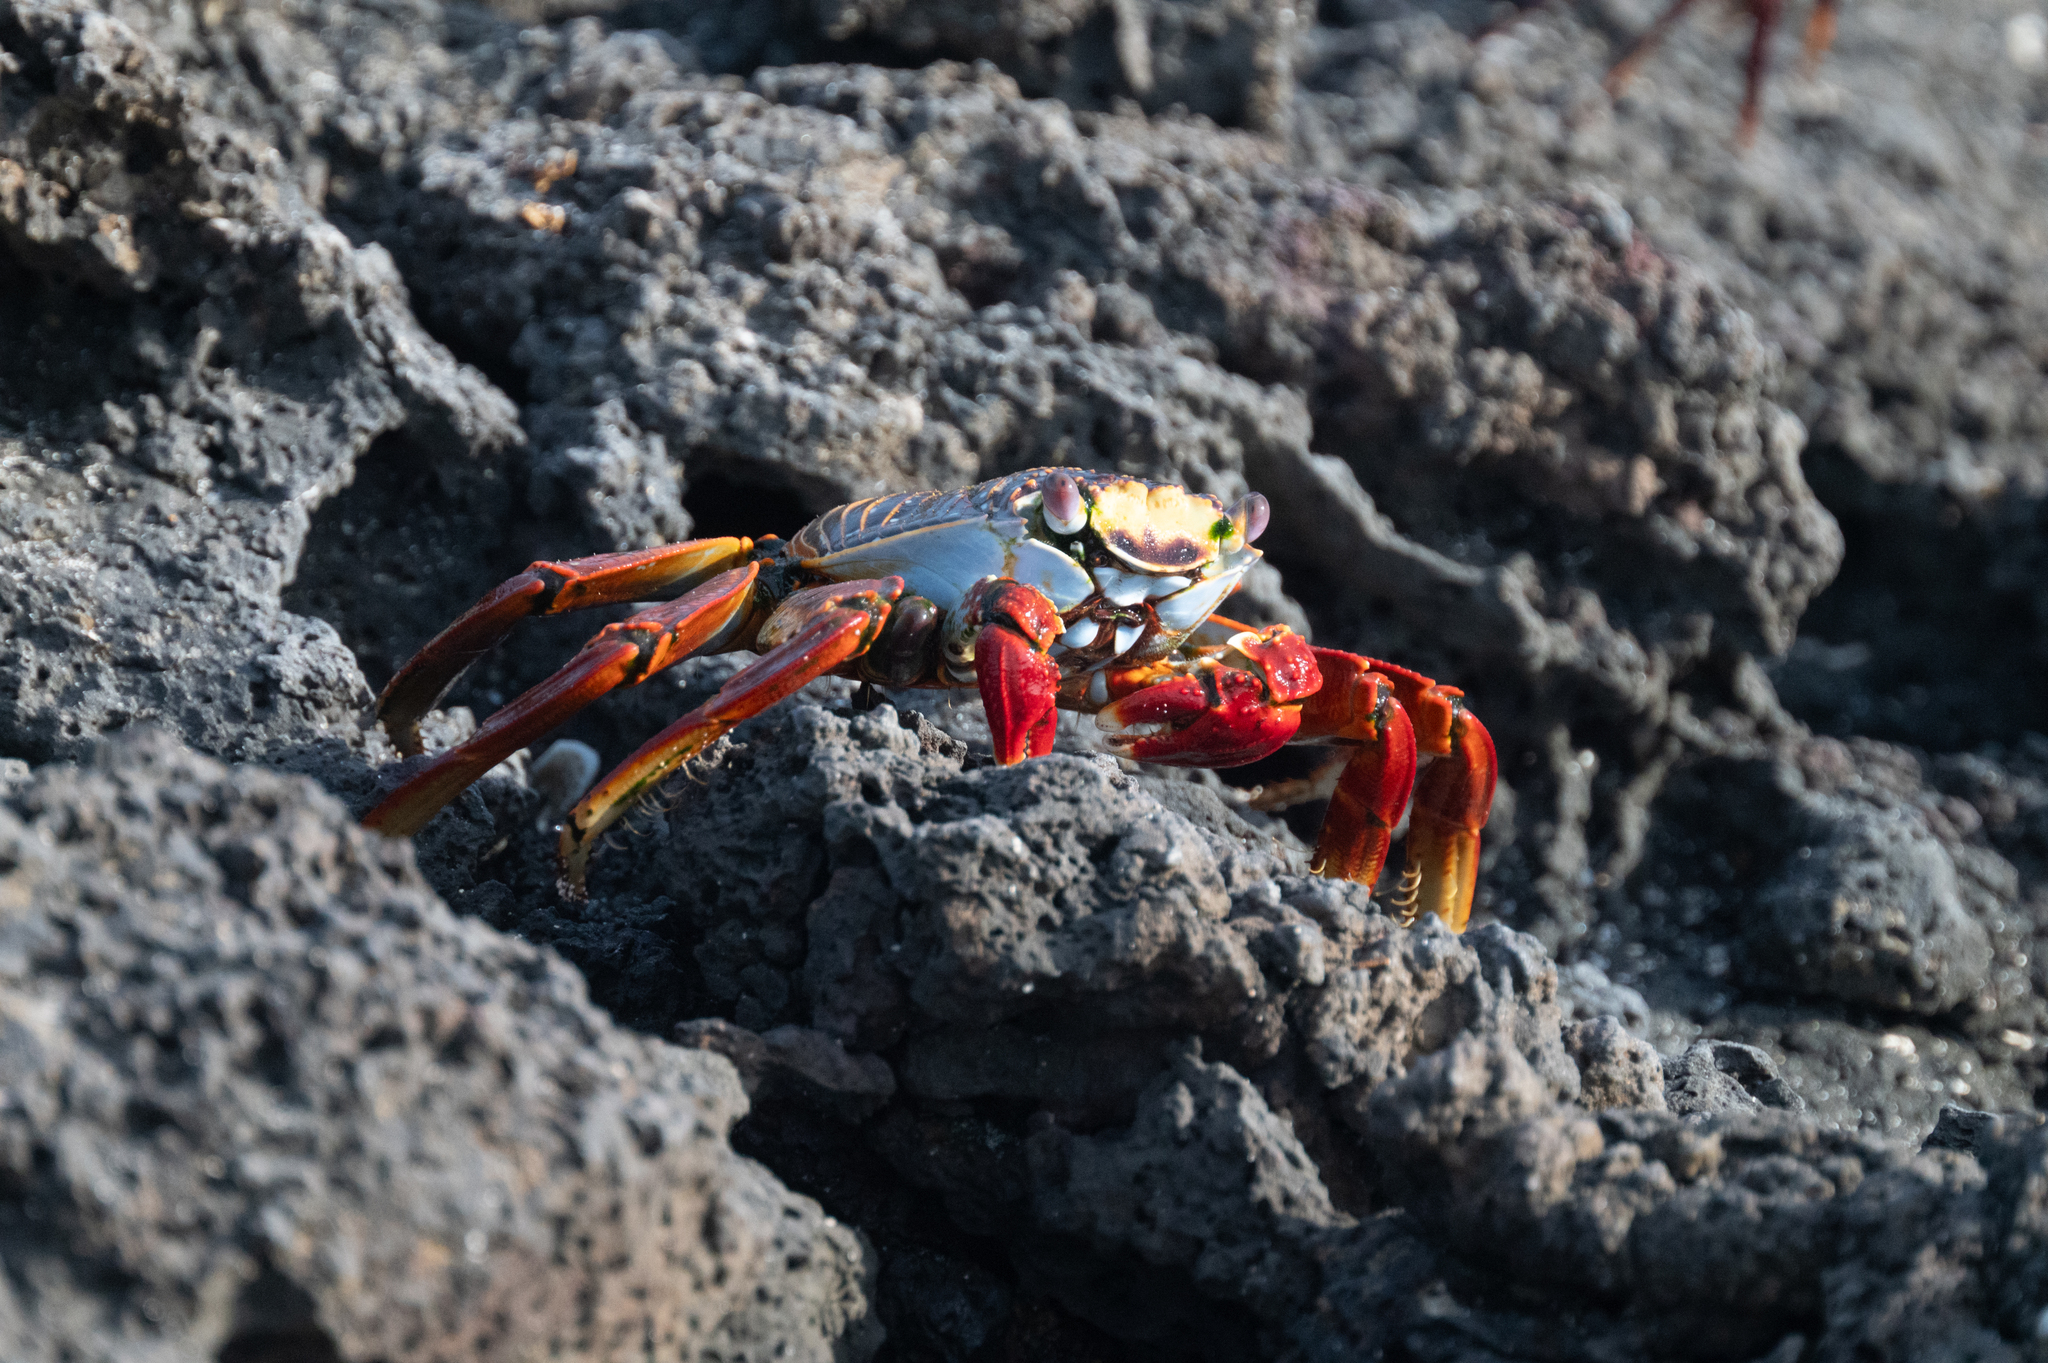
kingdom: Animalia
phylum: Arthropoda
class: Malacostraca
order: Decapoda
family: Grapsidae
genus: Grapsus
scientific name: Grapsus grapsus
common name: Sally lightfoot
